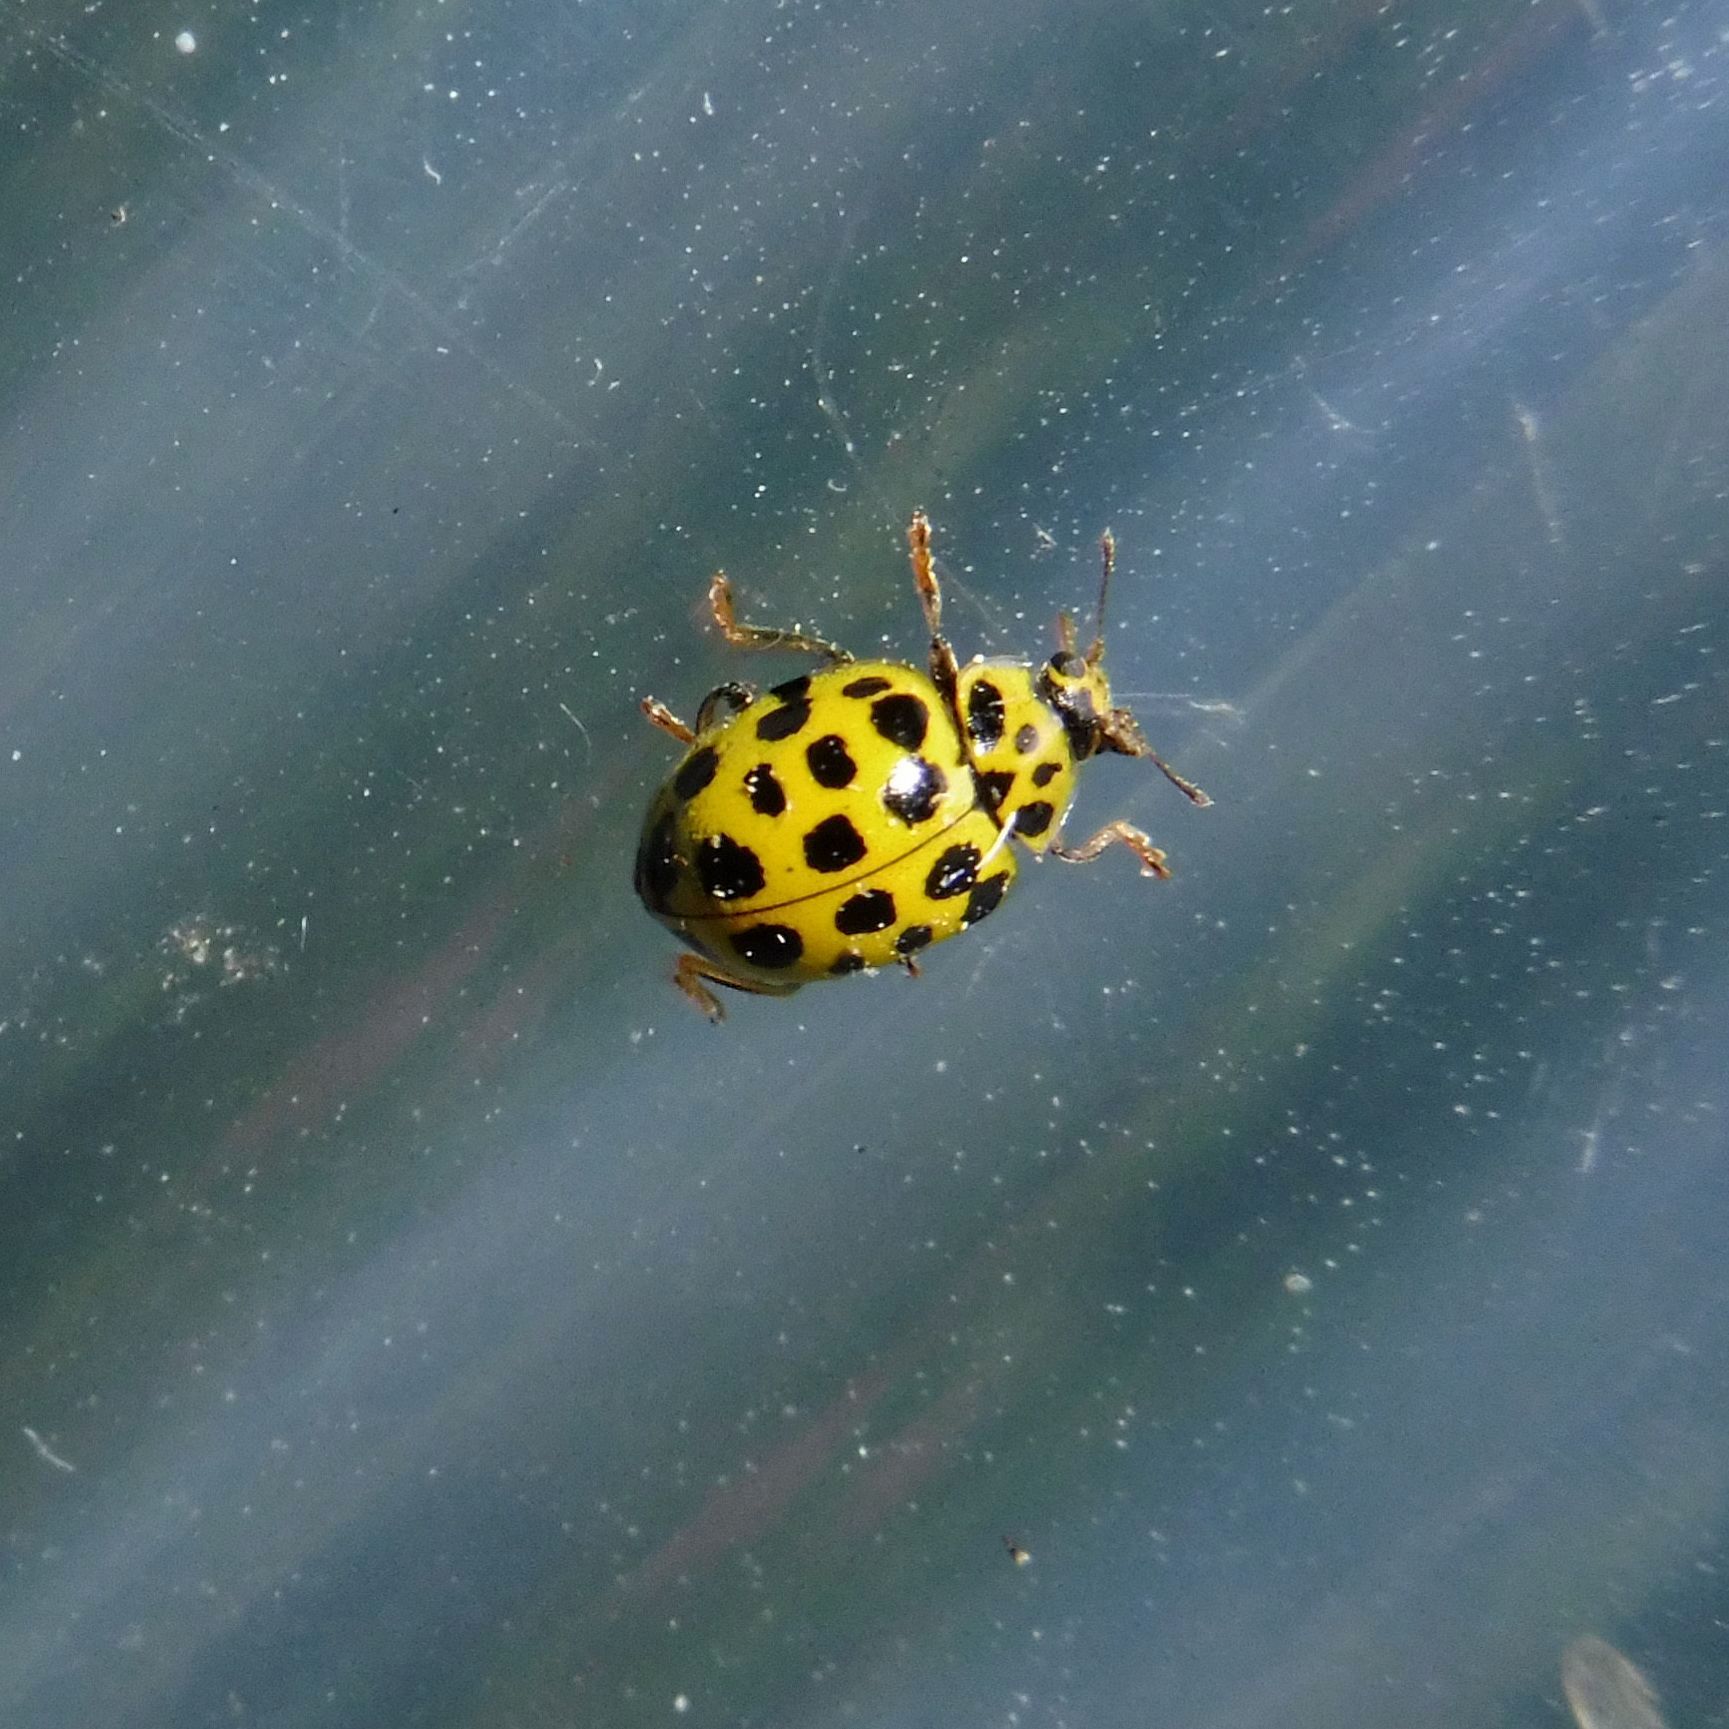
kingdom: Animalia
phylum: Arthropoda
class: Insecta
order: Coleoptera
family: Coccinellidae
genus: Psyllobora
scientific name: Psyllobora vigintiduopunctata
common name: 22-spot ladybird
